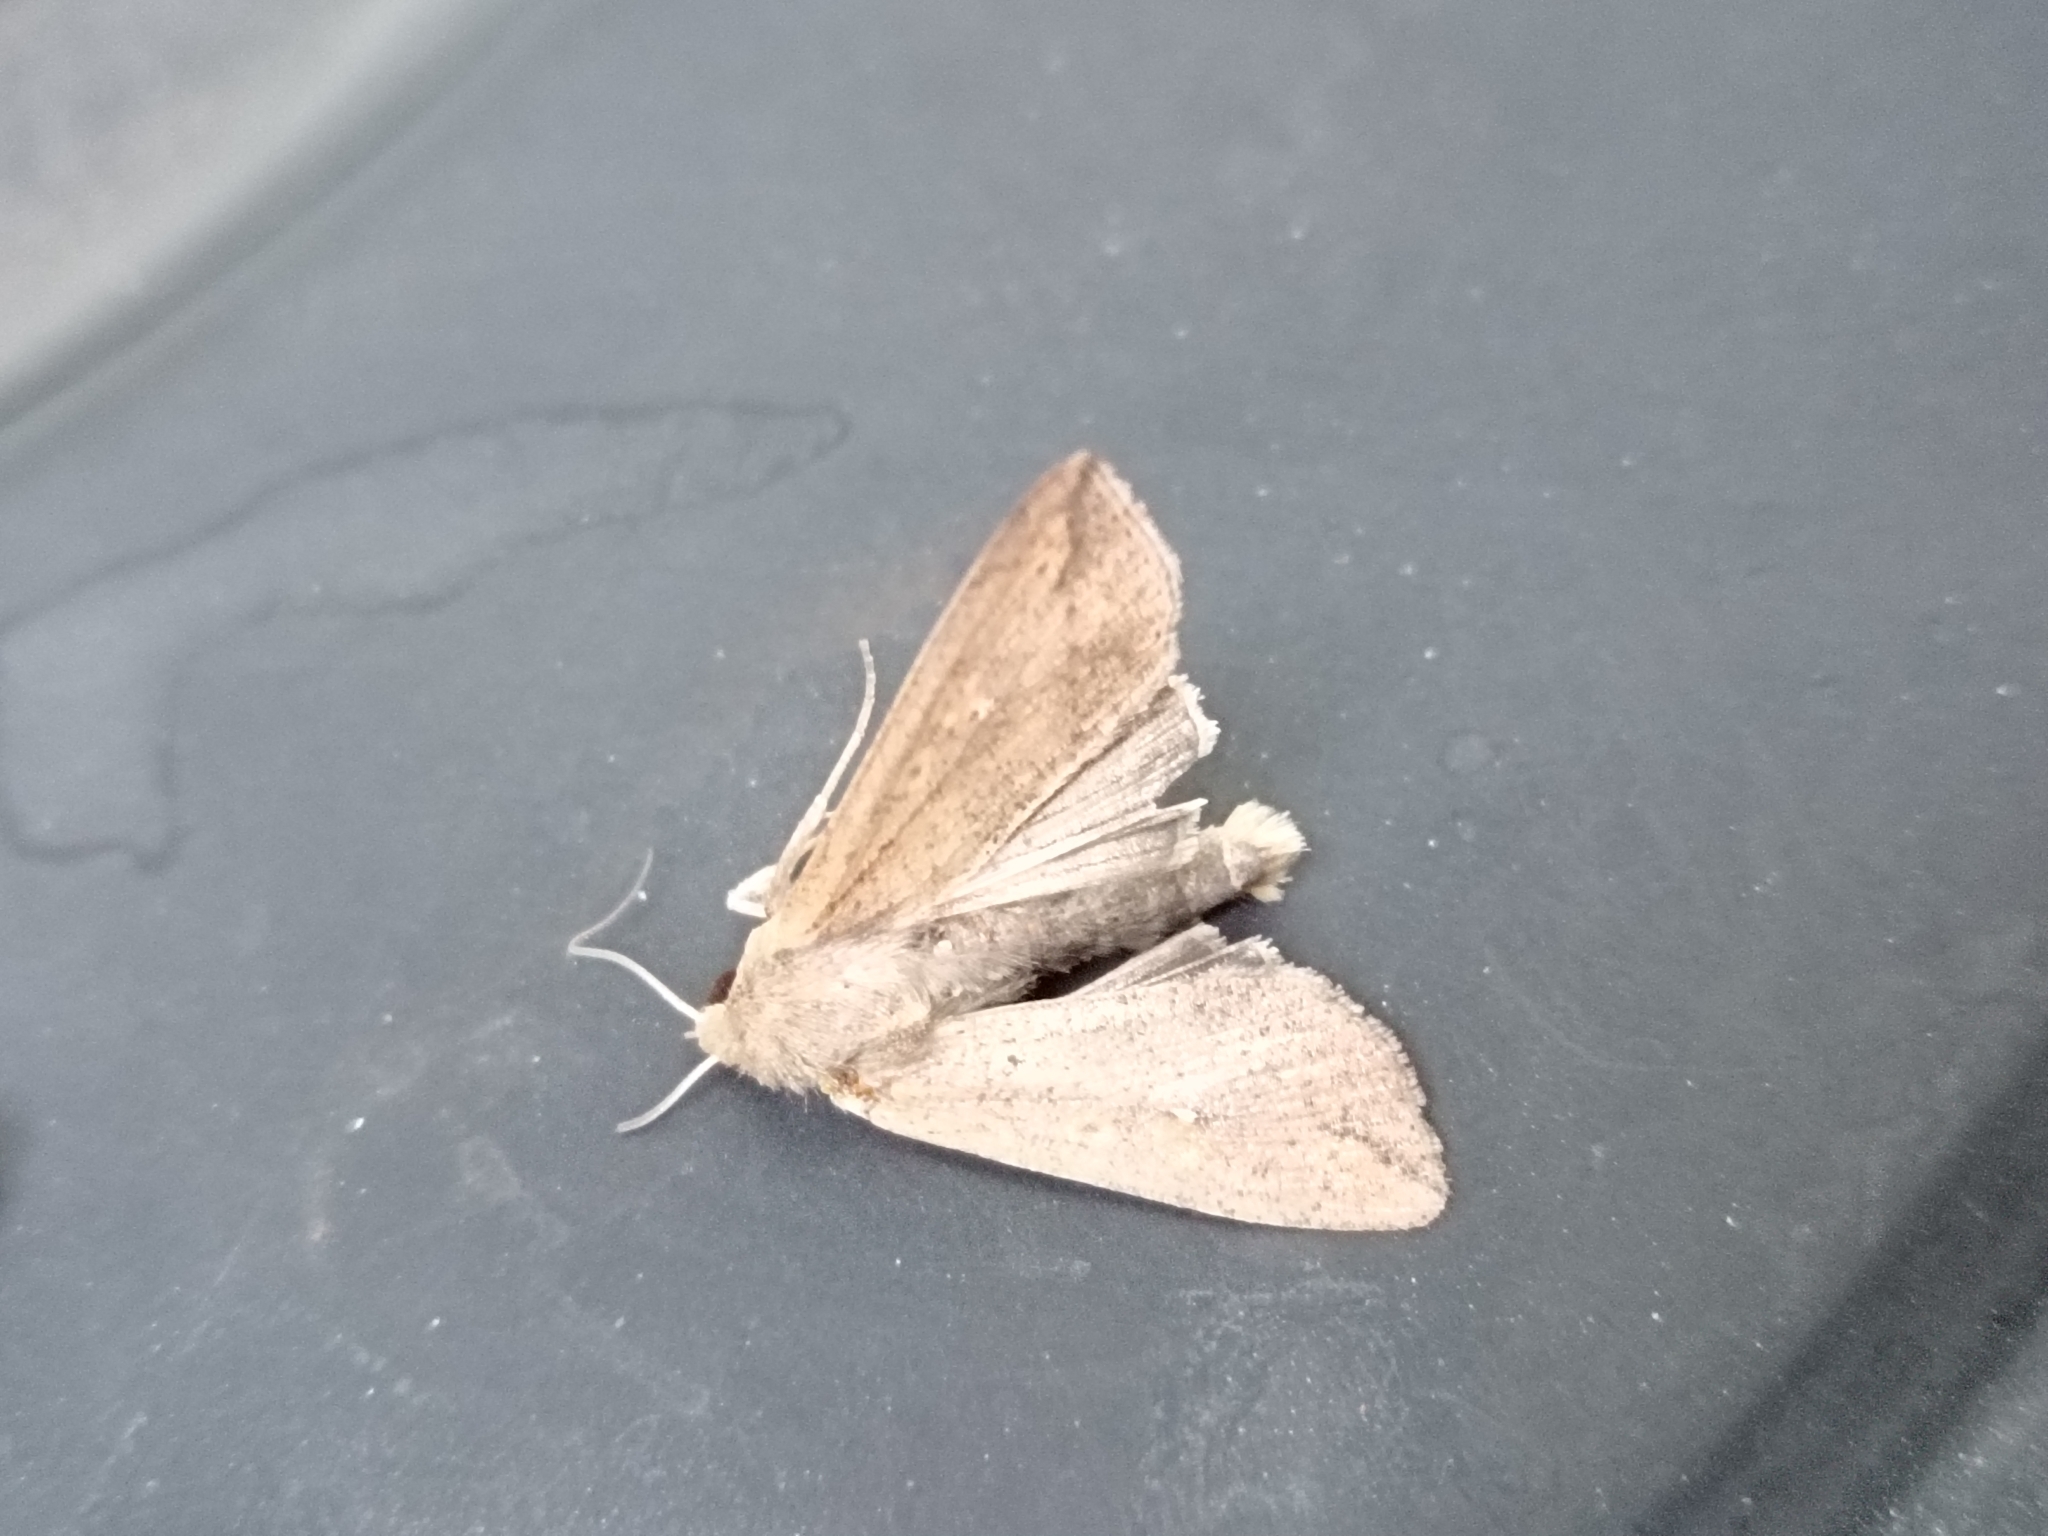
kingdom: Animalia
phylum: Arthropoda
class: Insecta
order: Lepidoptera
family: Noctuidae
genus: Mythimna
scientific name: Mythimna unipuncta
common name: White-speck
